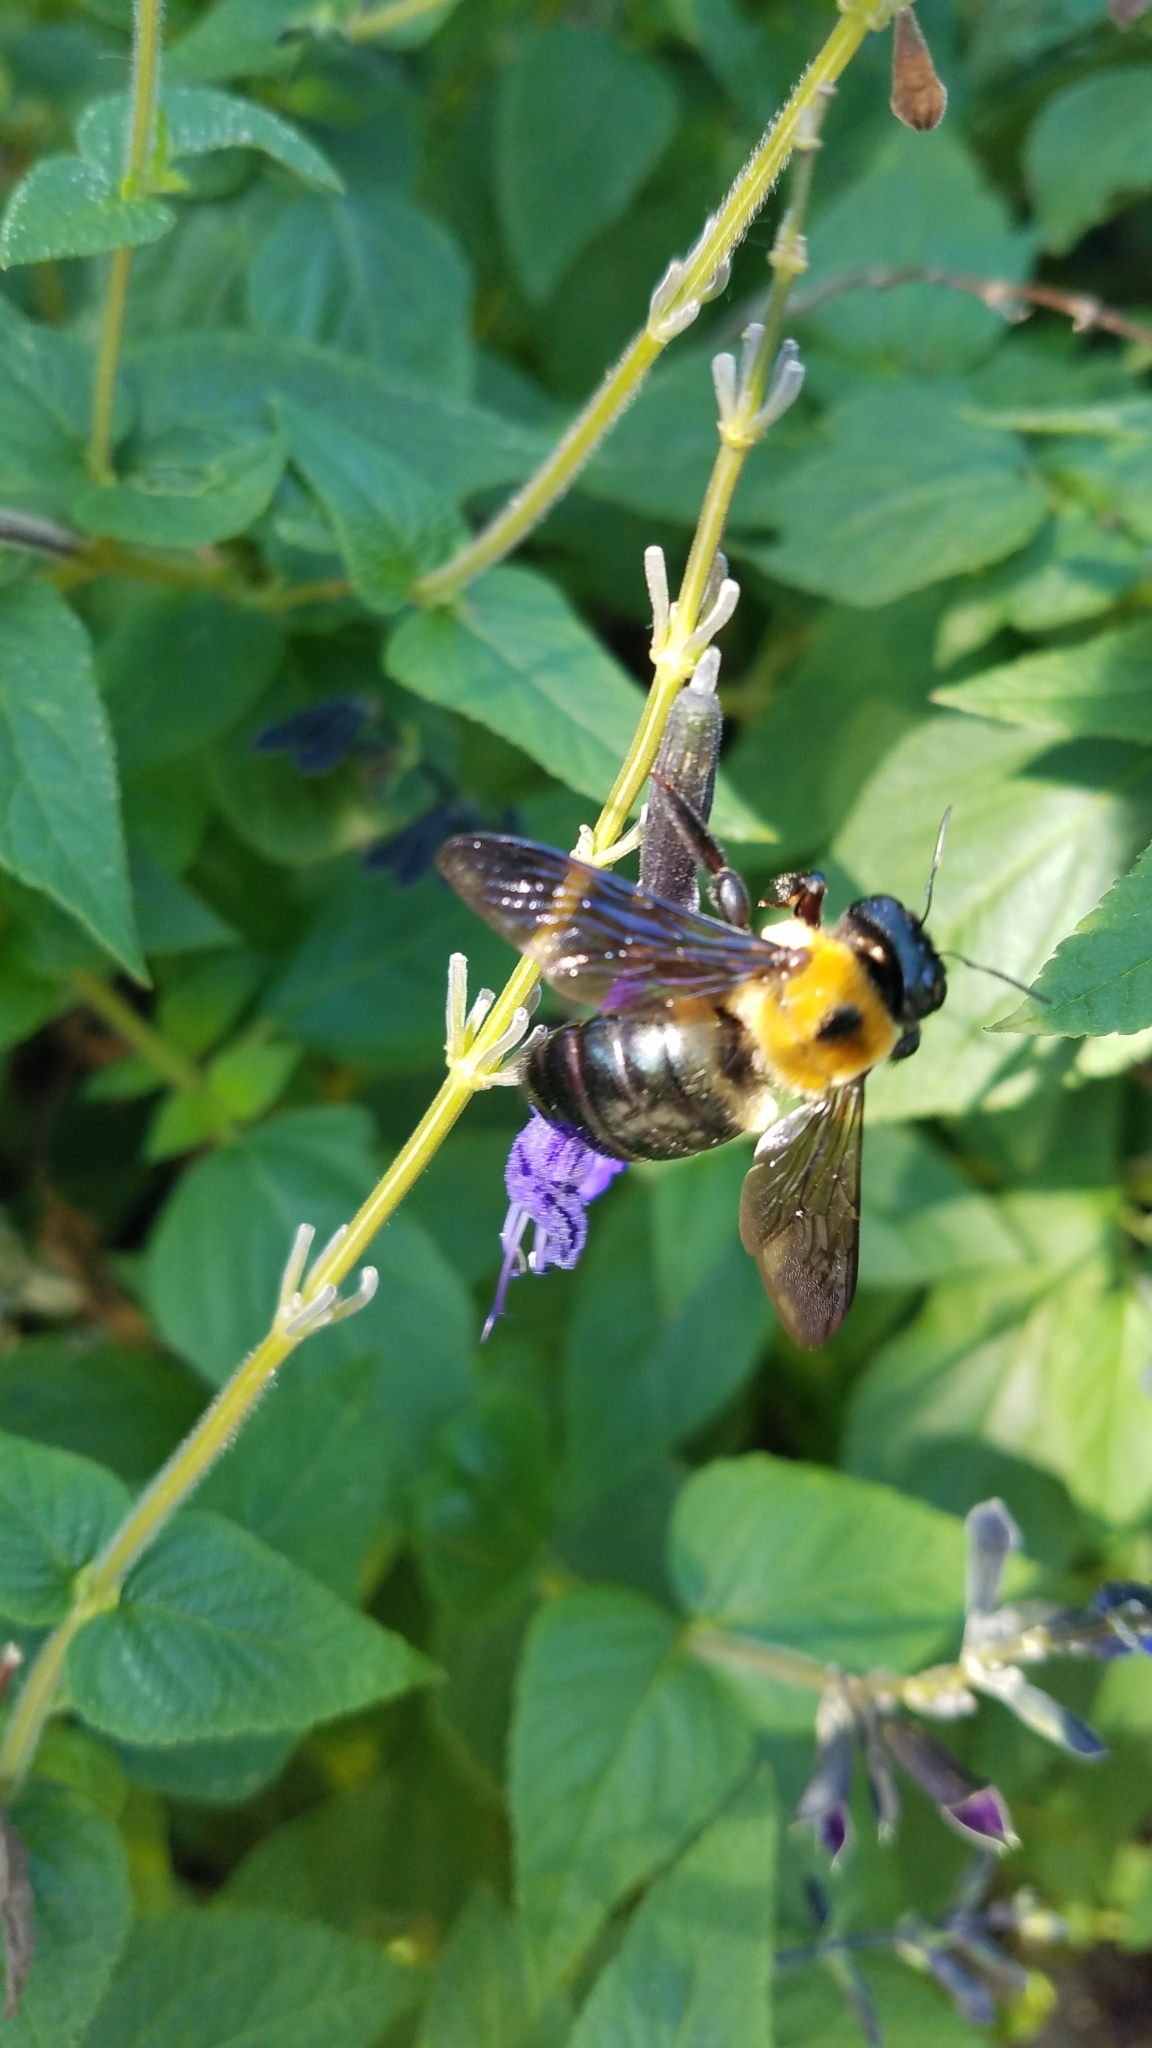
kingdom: Animalia
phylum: Arthropoda
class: Insecta
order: Hymenoptera
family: Apidae
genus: Xylocopa
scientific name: Xylocopa virginica
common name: Carpenter bee
